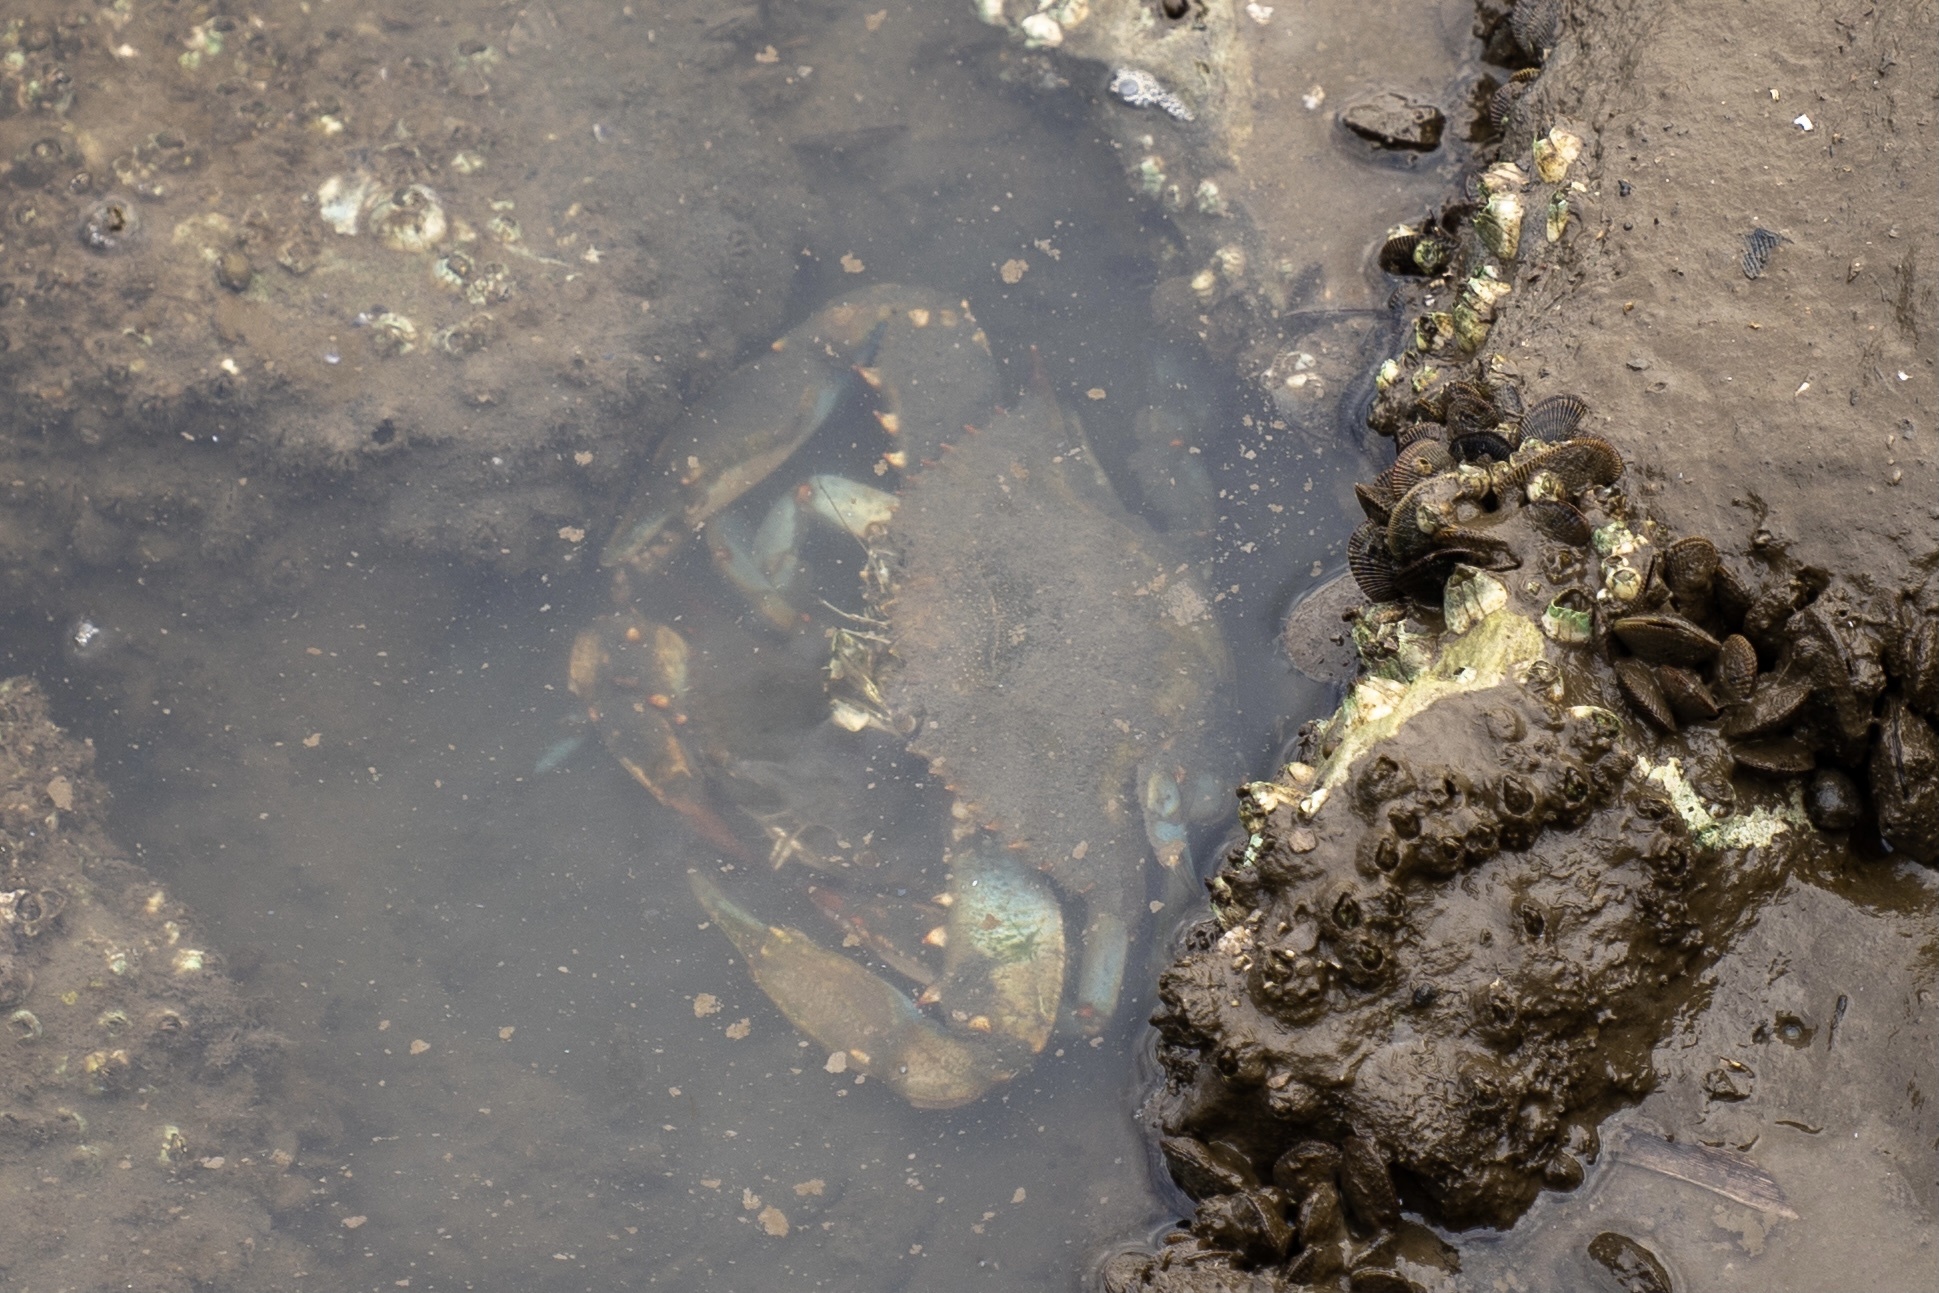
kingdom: Animalia
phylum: Arthropoda
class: Malacostraca
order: Decapoda
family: Portunidae
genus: Callinectes
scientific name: Callinectes sapidus
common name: Blue crab
